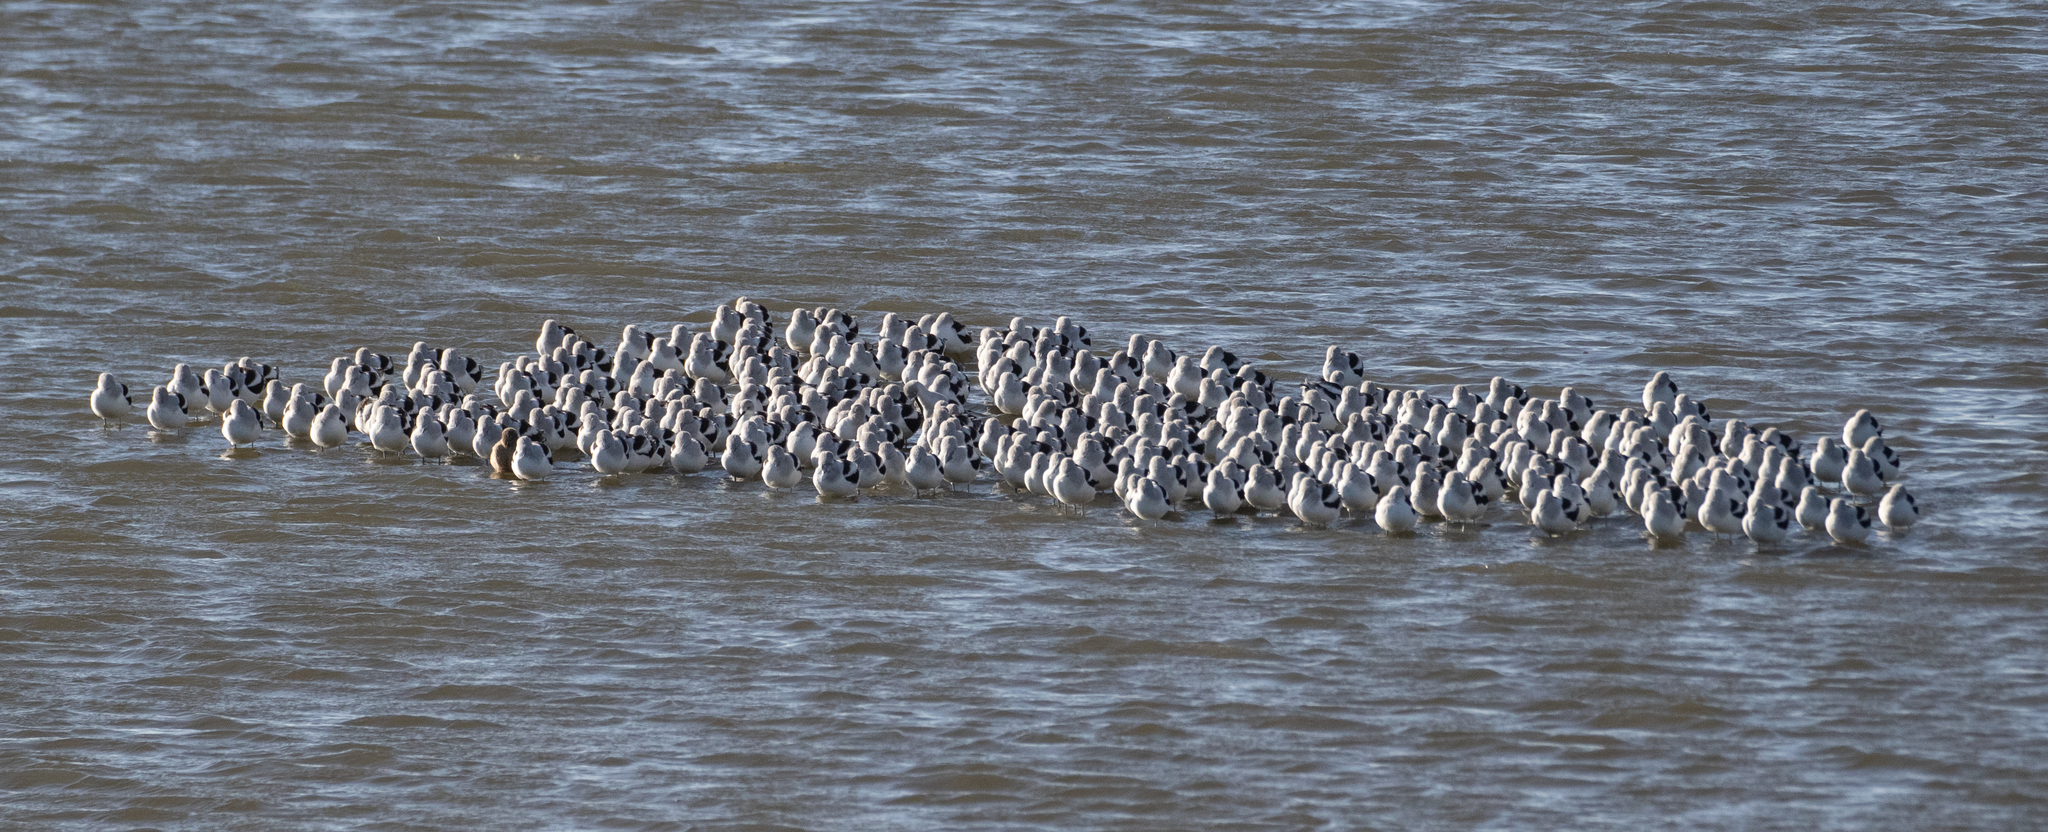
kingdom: Animalia
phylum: Chordata
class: Aves
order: Charadriiformes
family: Recurvirostridae
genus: Recurvirostra
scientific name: Recurvirostra americana
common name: American avocet
